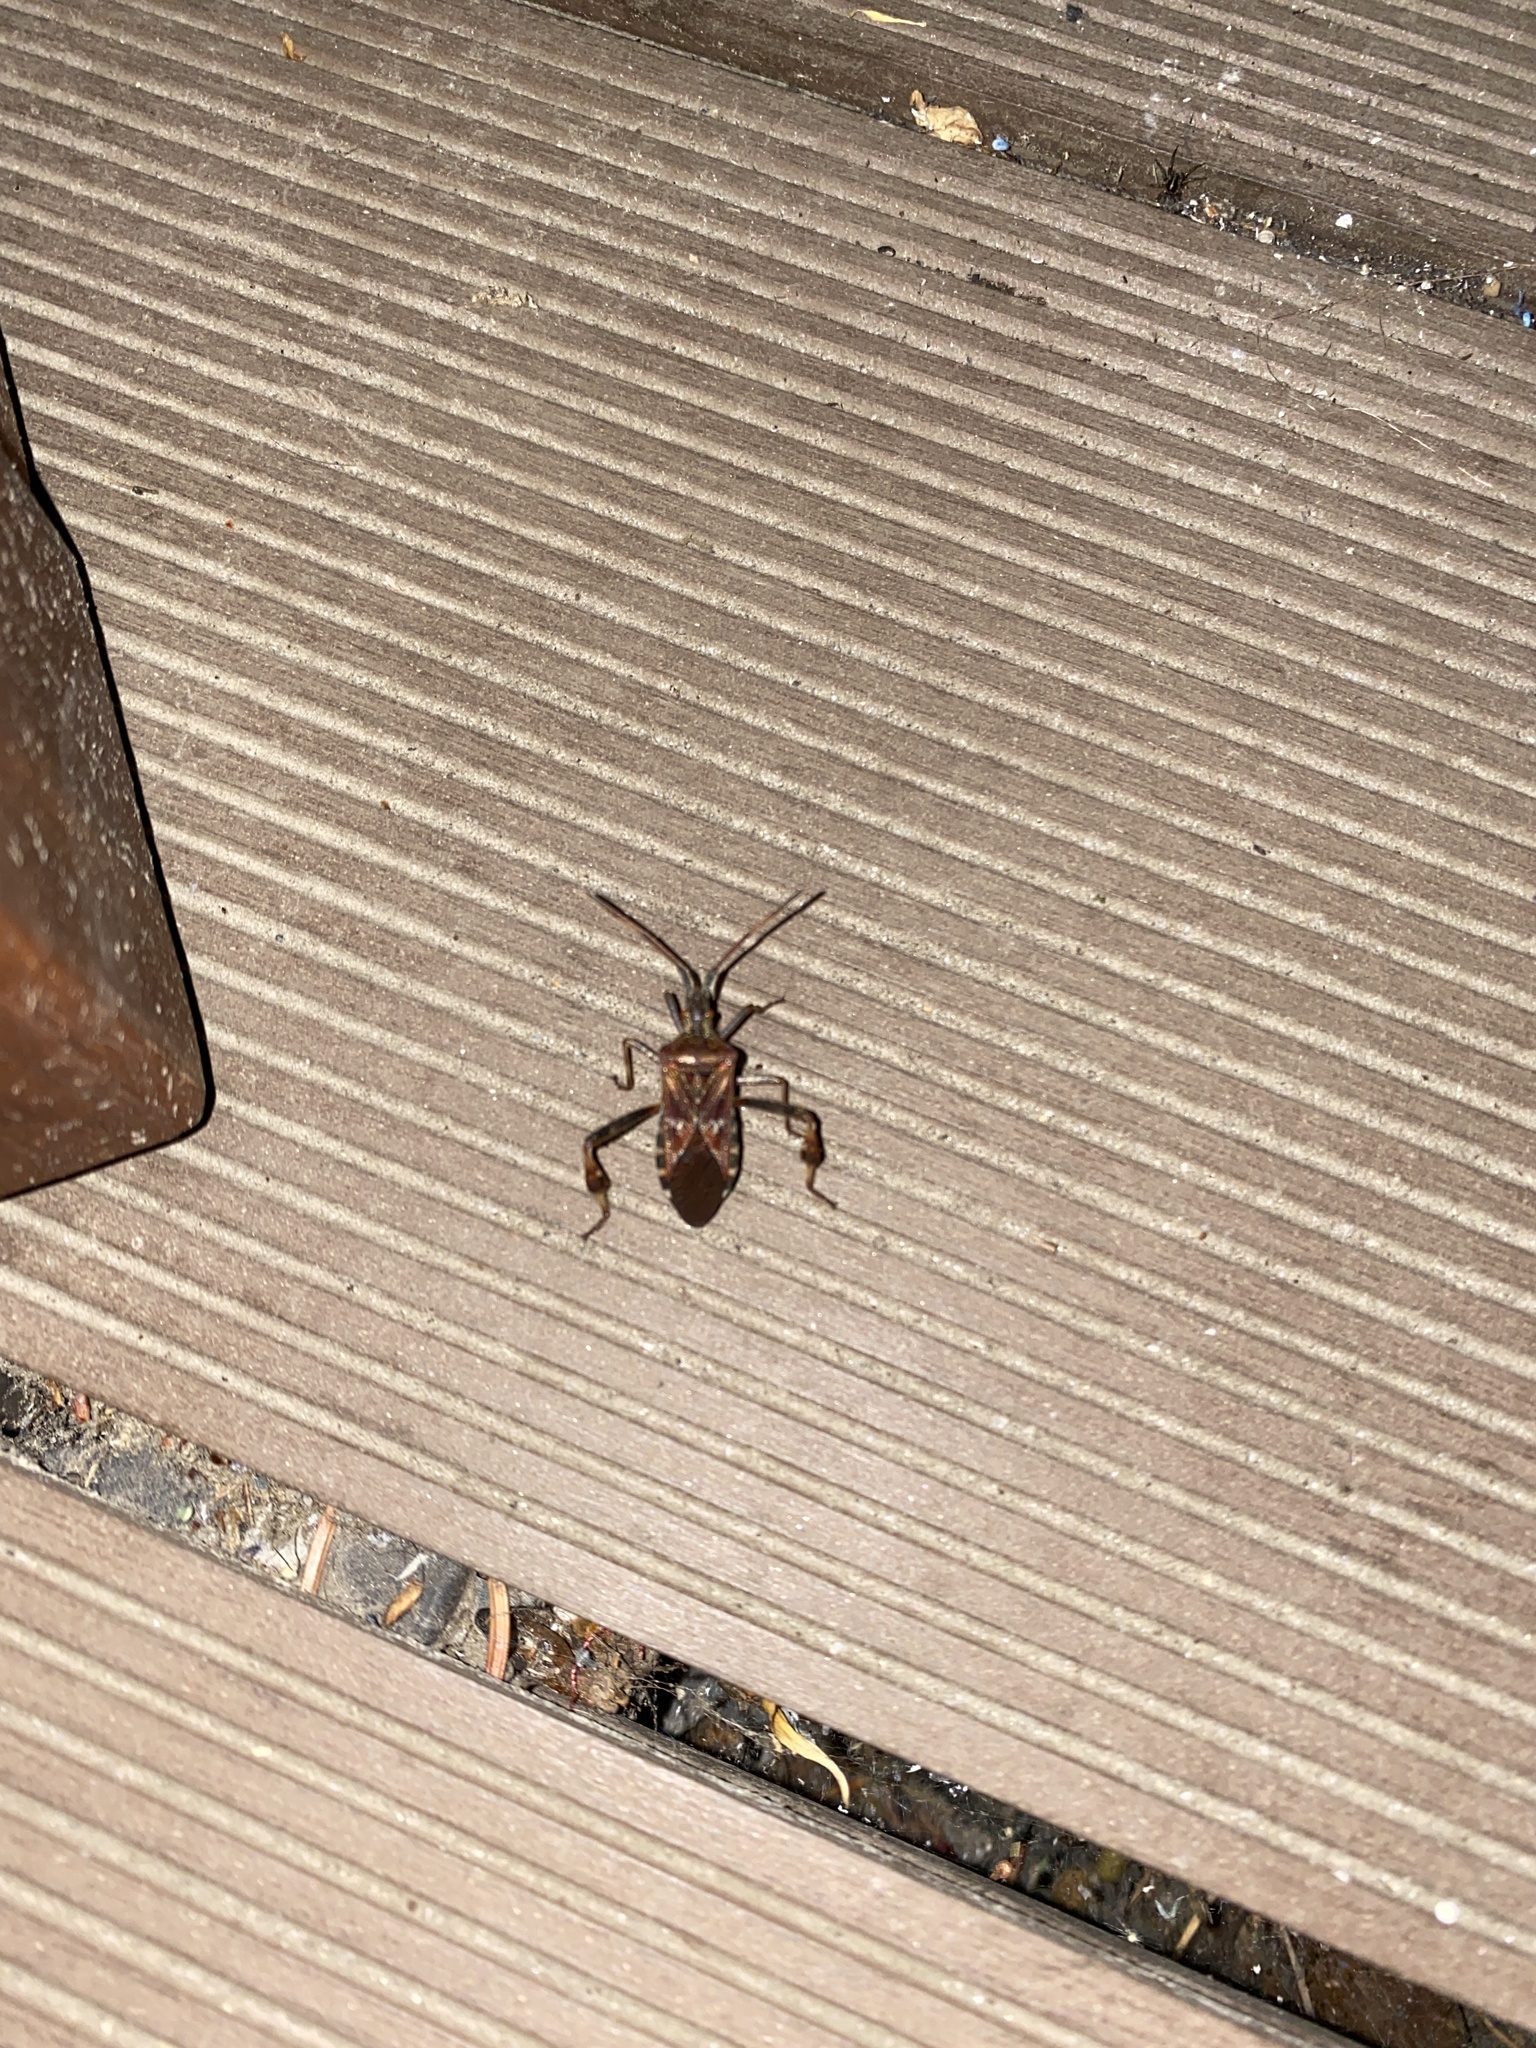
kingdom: Animalia
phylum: Arthropoda
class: Insecta
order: Hemiptera
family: Coreidae
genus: Leptoglossus
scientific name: Leptoglossus occidentalis
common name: Western conifer-seed bug
